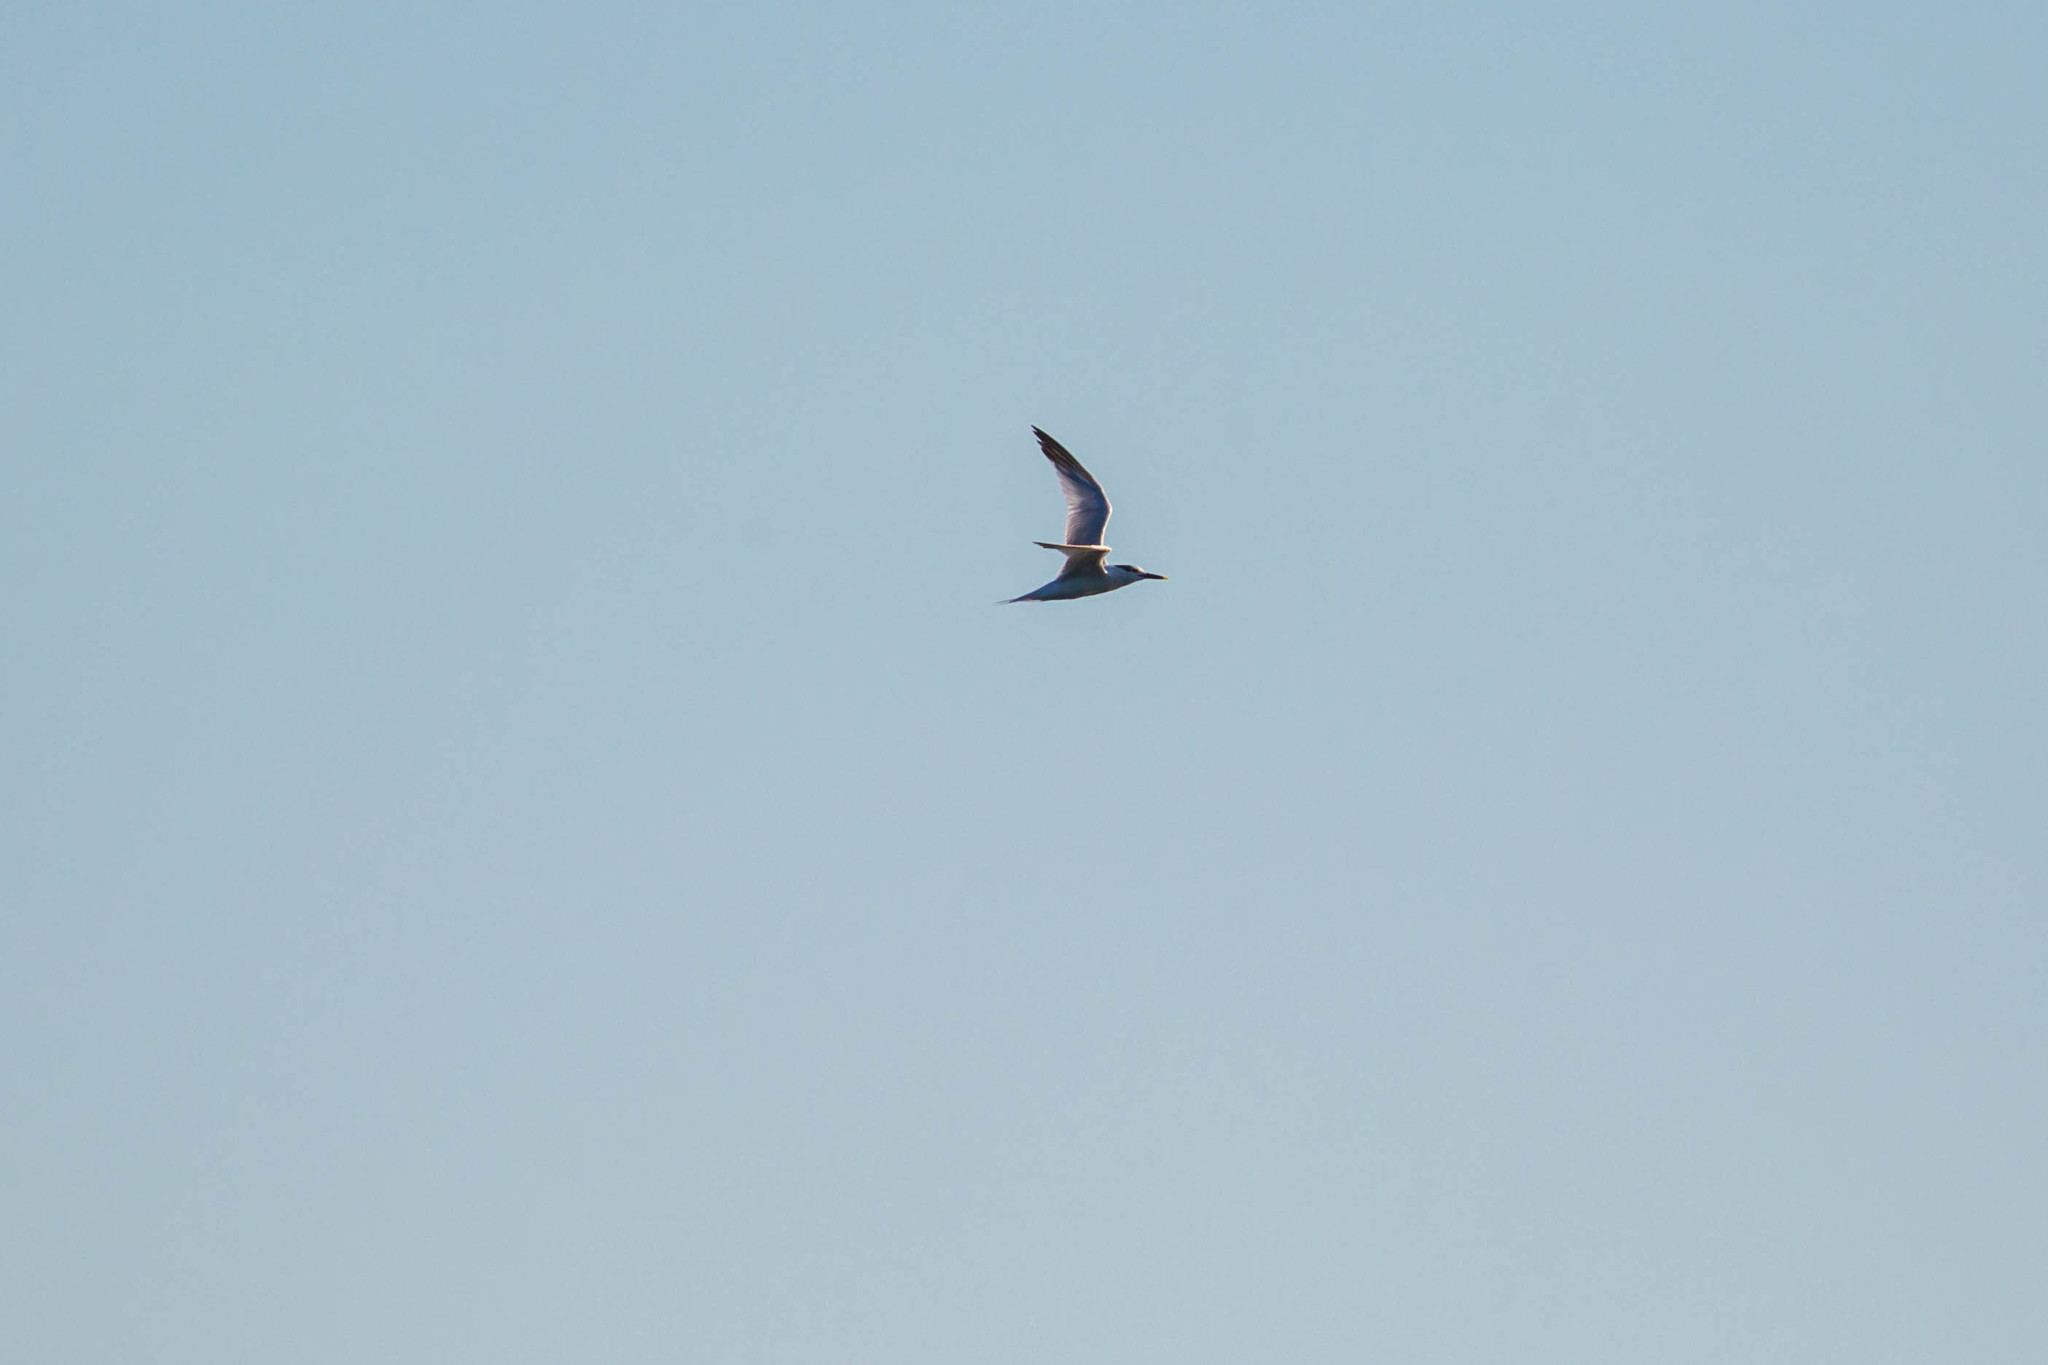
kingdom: Animalia
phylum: Chordata
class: Aves
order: Charadriiformes
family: Laridae
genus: Thalasseus
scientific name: Thalasseus sandvicensis
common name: Sandwich tern
